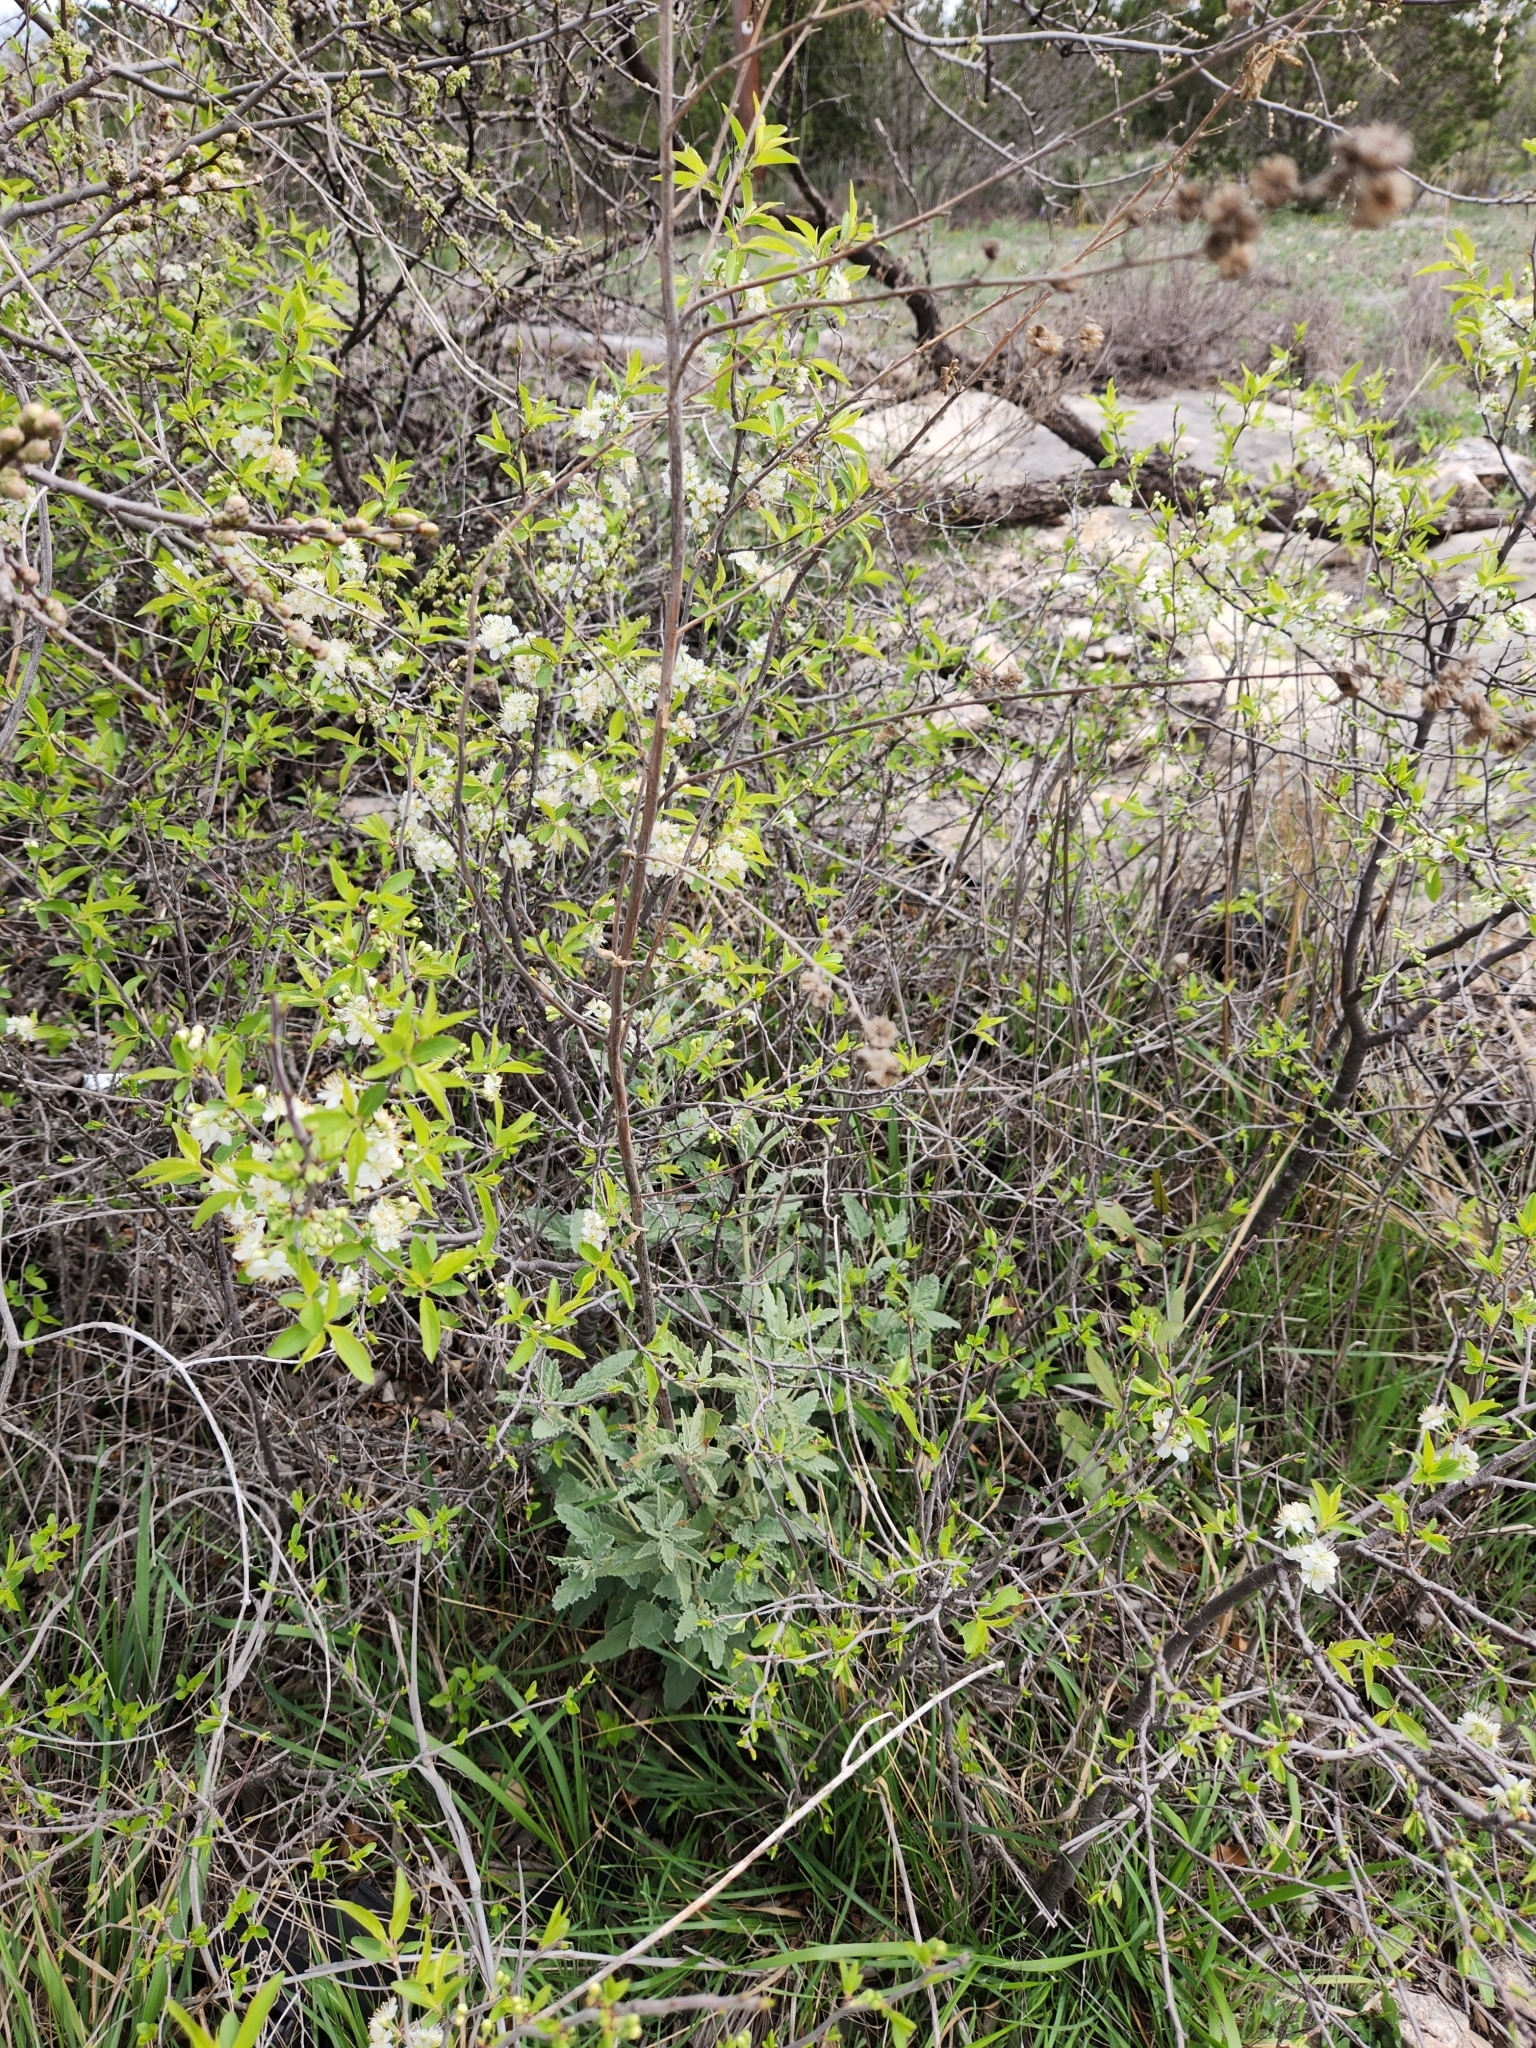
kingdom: Plantae
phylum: Tracheophyta
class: Magnoliopsida
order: Rosales
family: Rosaceae
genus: Prunus
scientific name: Prunus murrayana
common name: Murray plum
